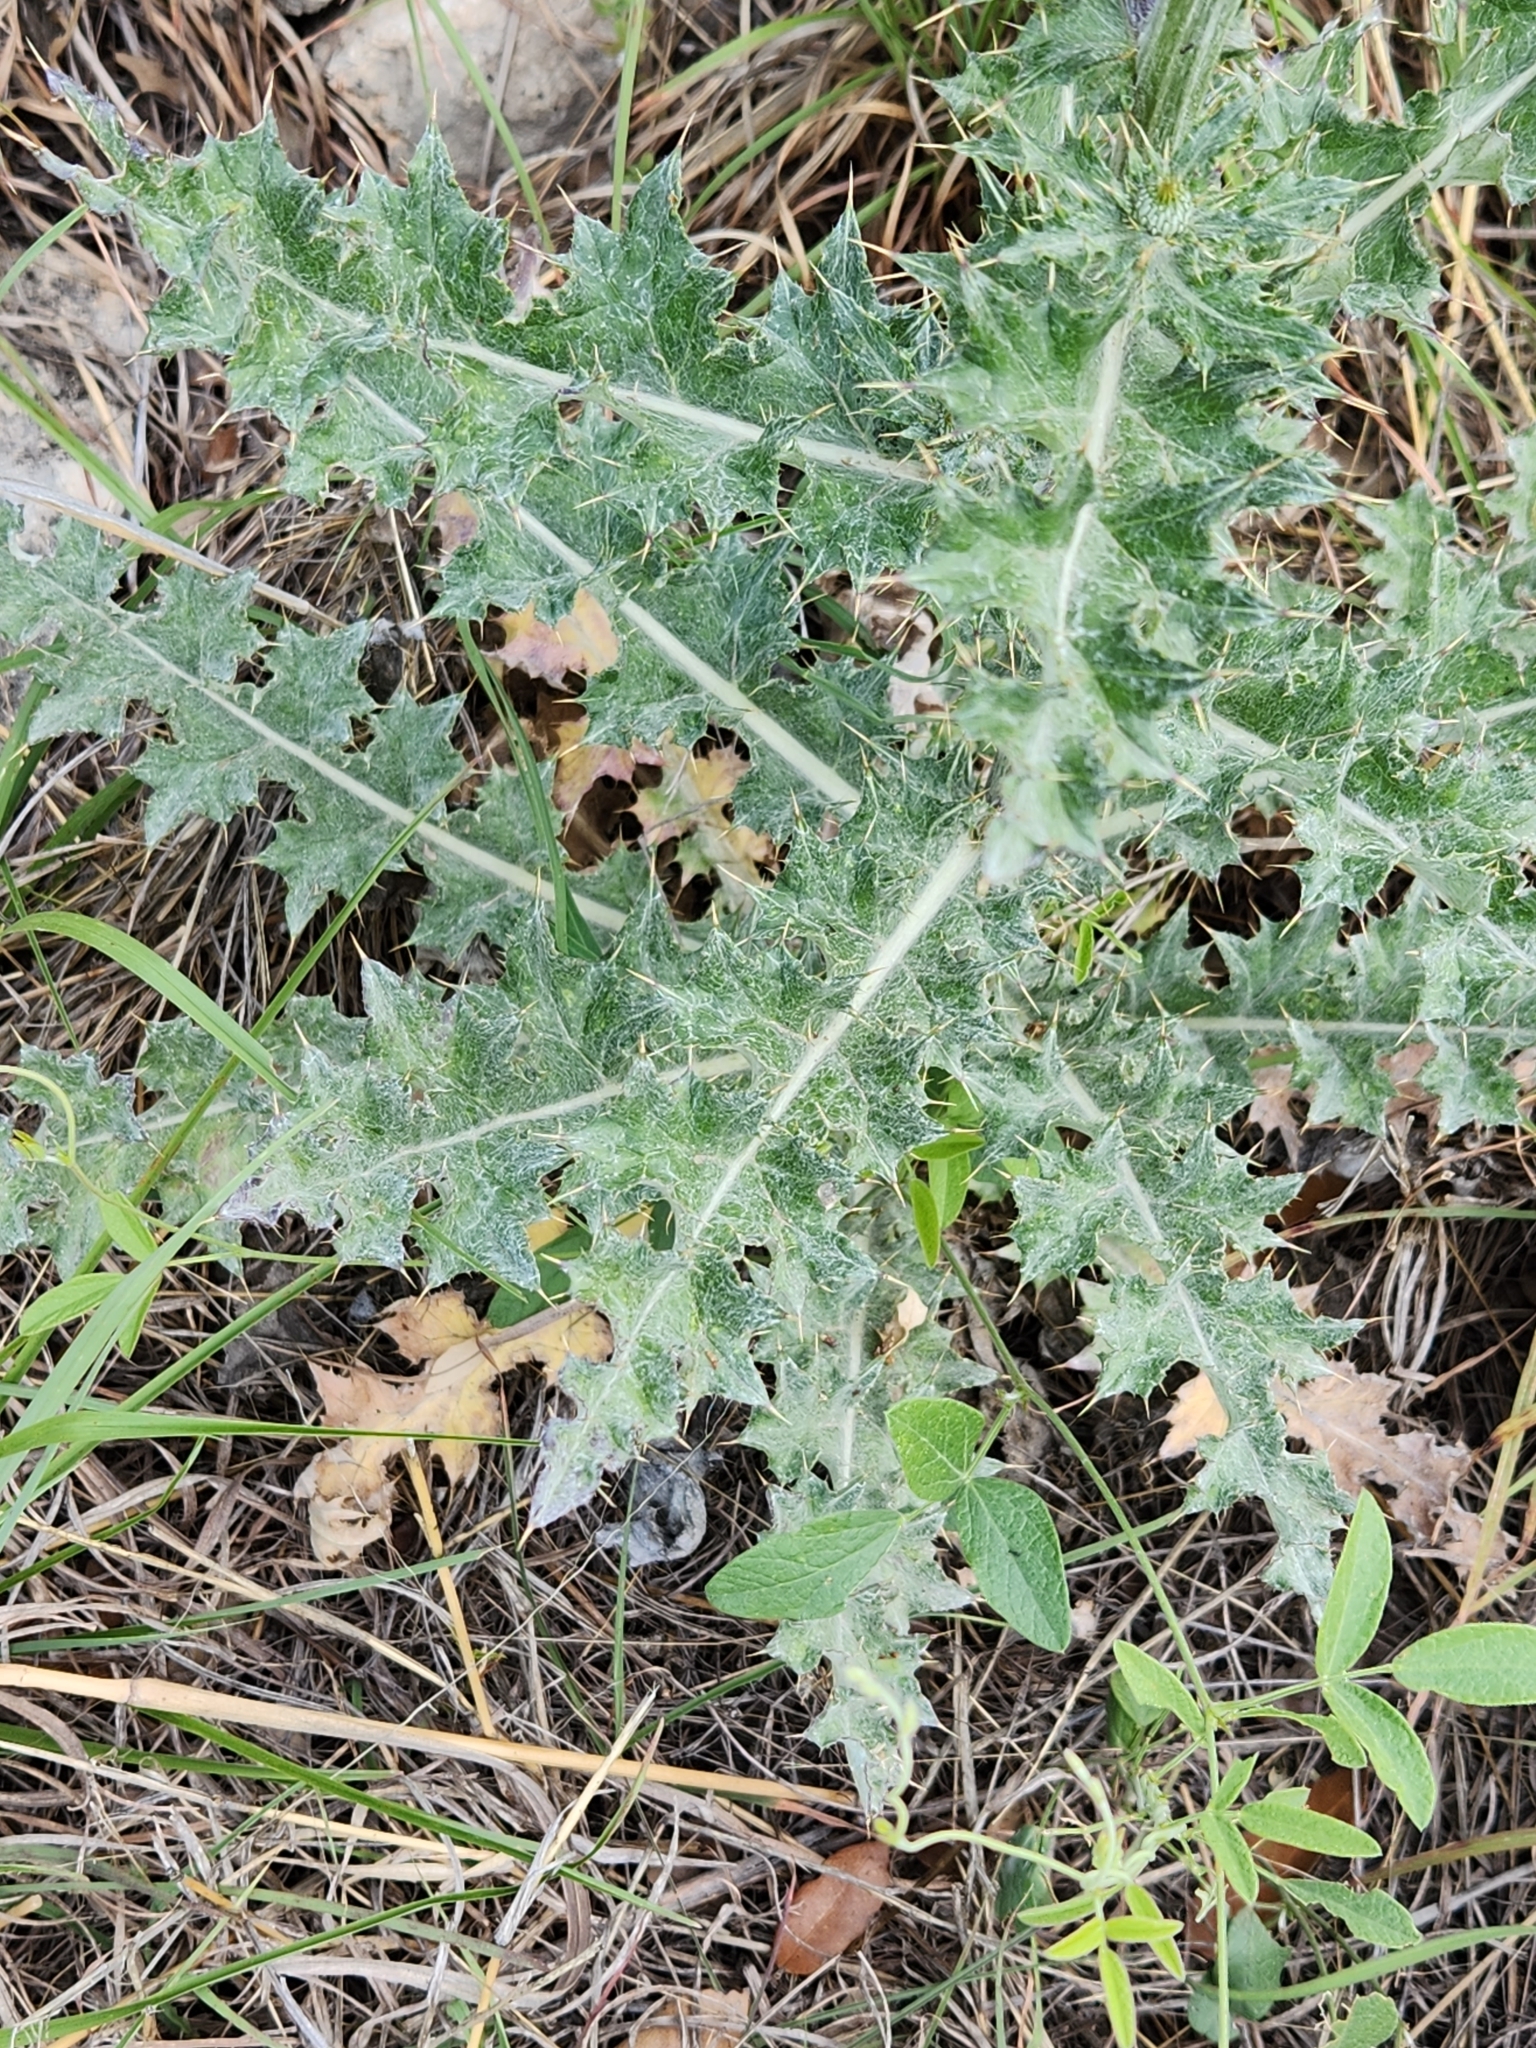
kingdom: Plantae
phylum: Tracheophyta
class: Magnoliopsida
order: Asterales
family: Asteraceae
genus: Cirsium
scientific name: Cirsium texanum
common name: Texas purple thistle
